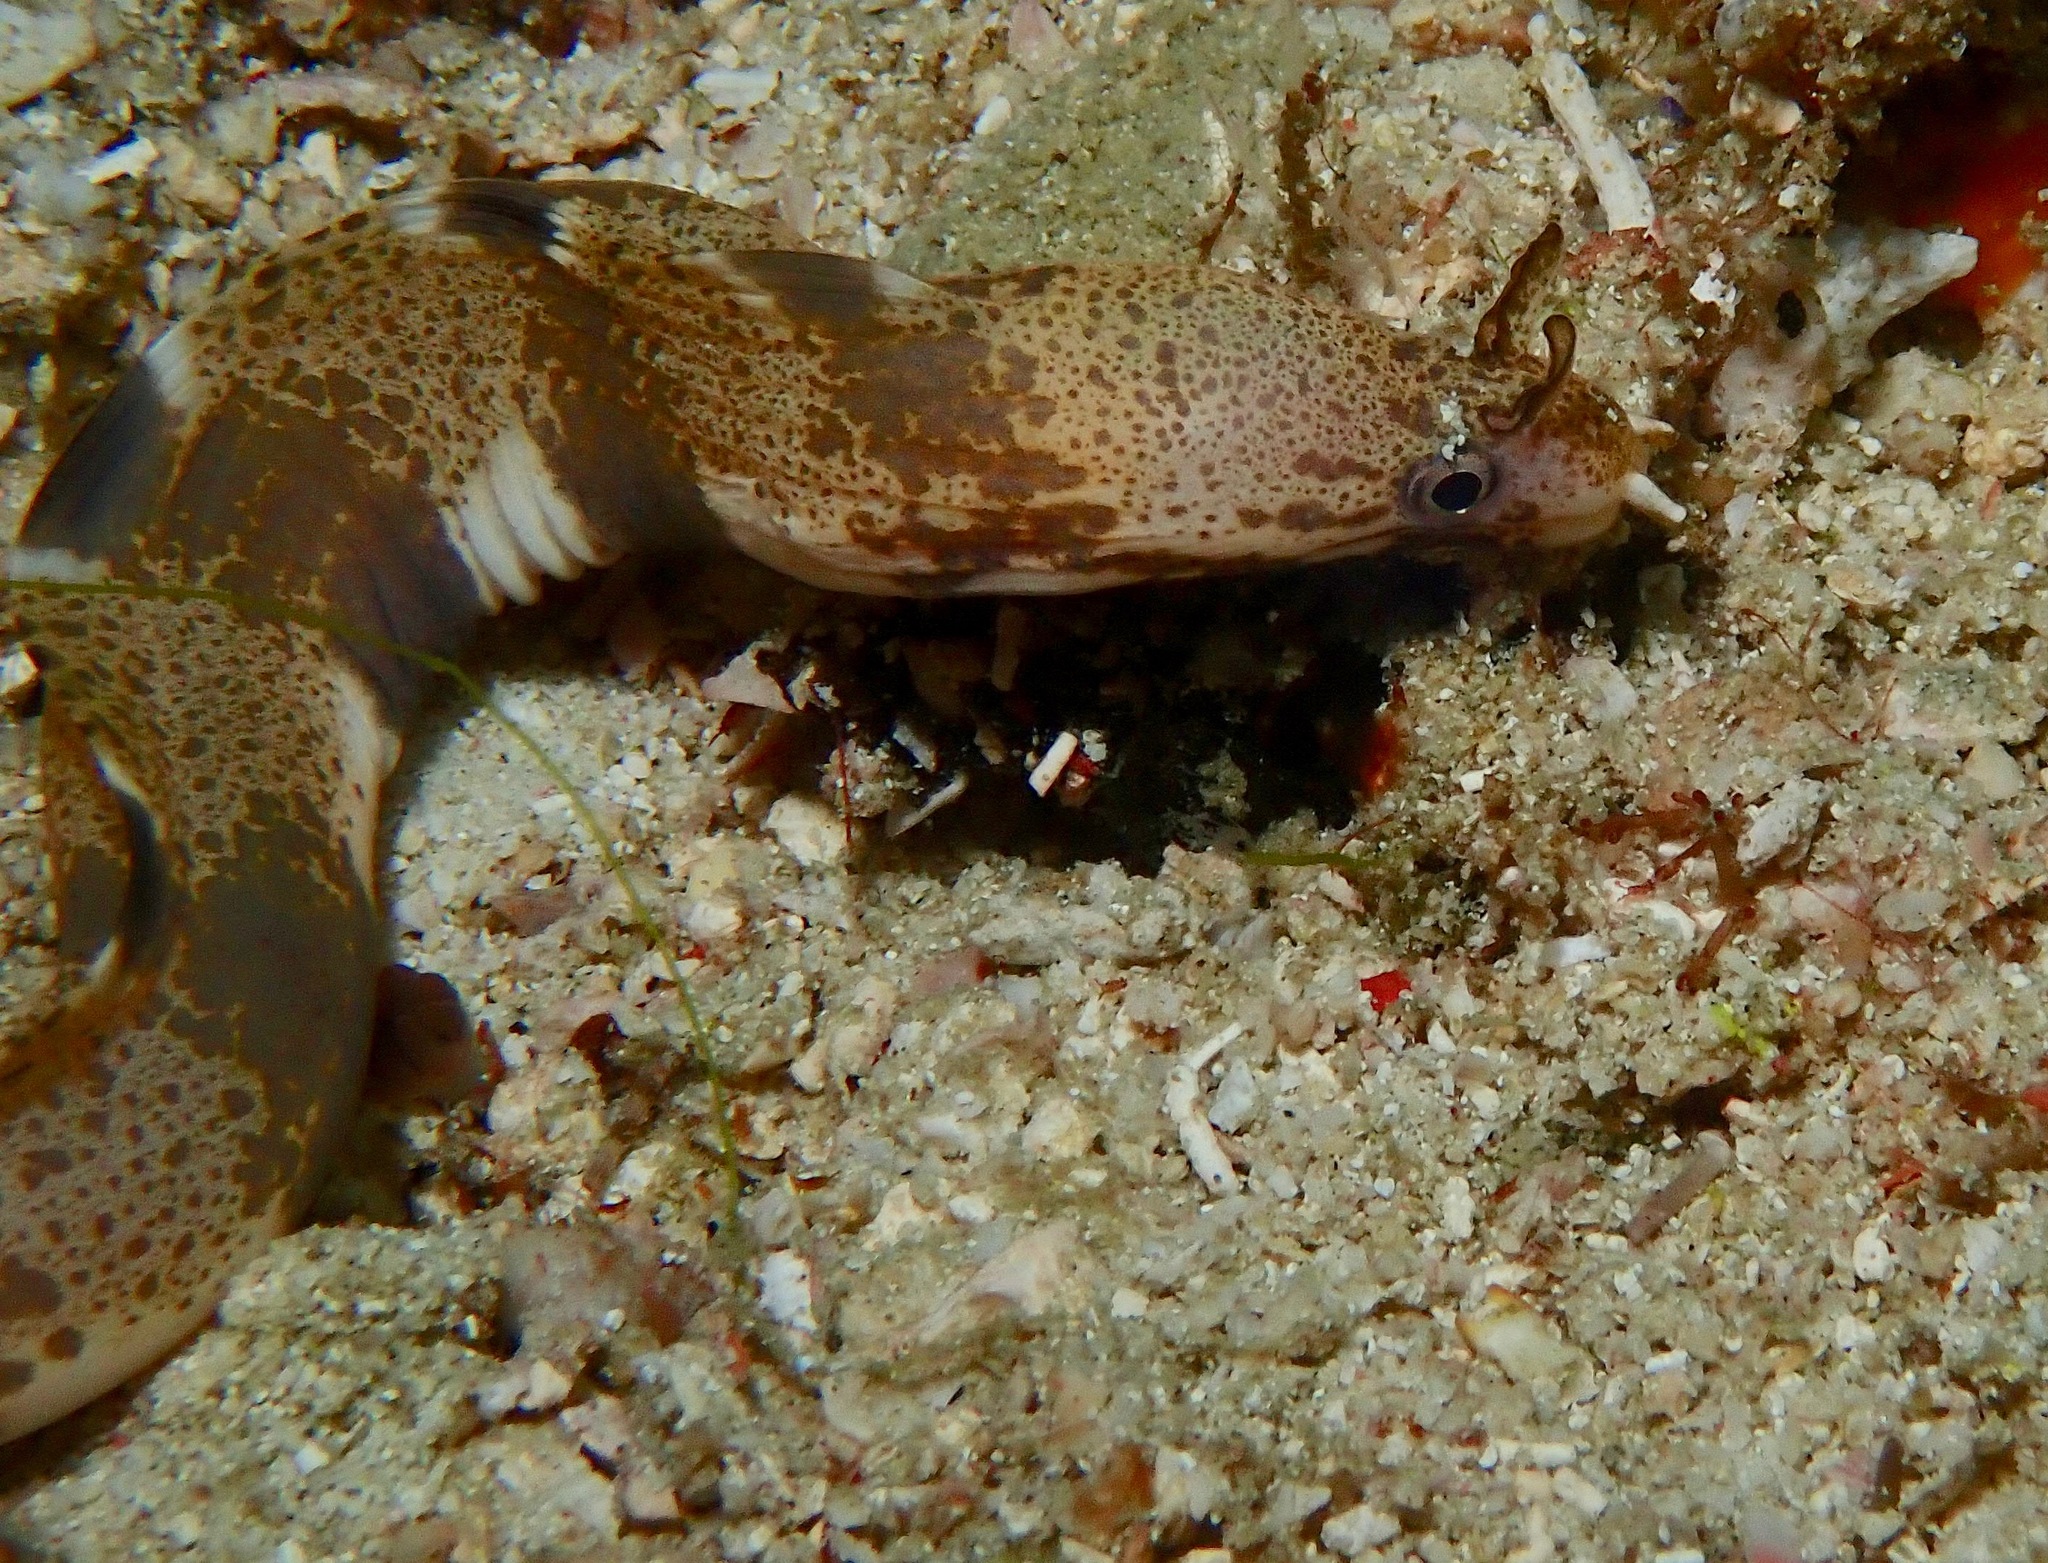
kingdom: Animalia
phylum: Chordata
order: Anguilliformes
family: Muraenidae
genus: Gymnothorax
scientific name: Gymnothorax longinaris
